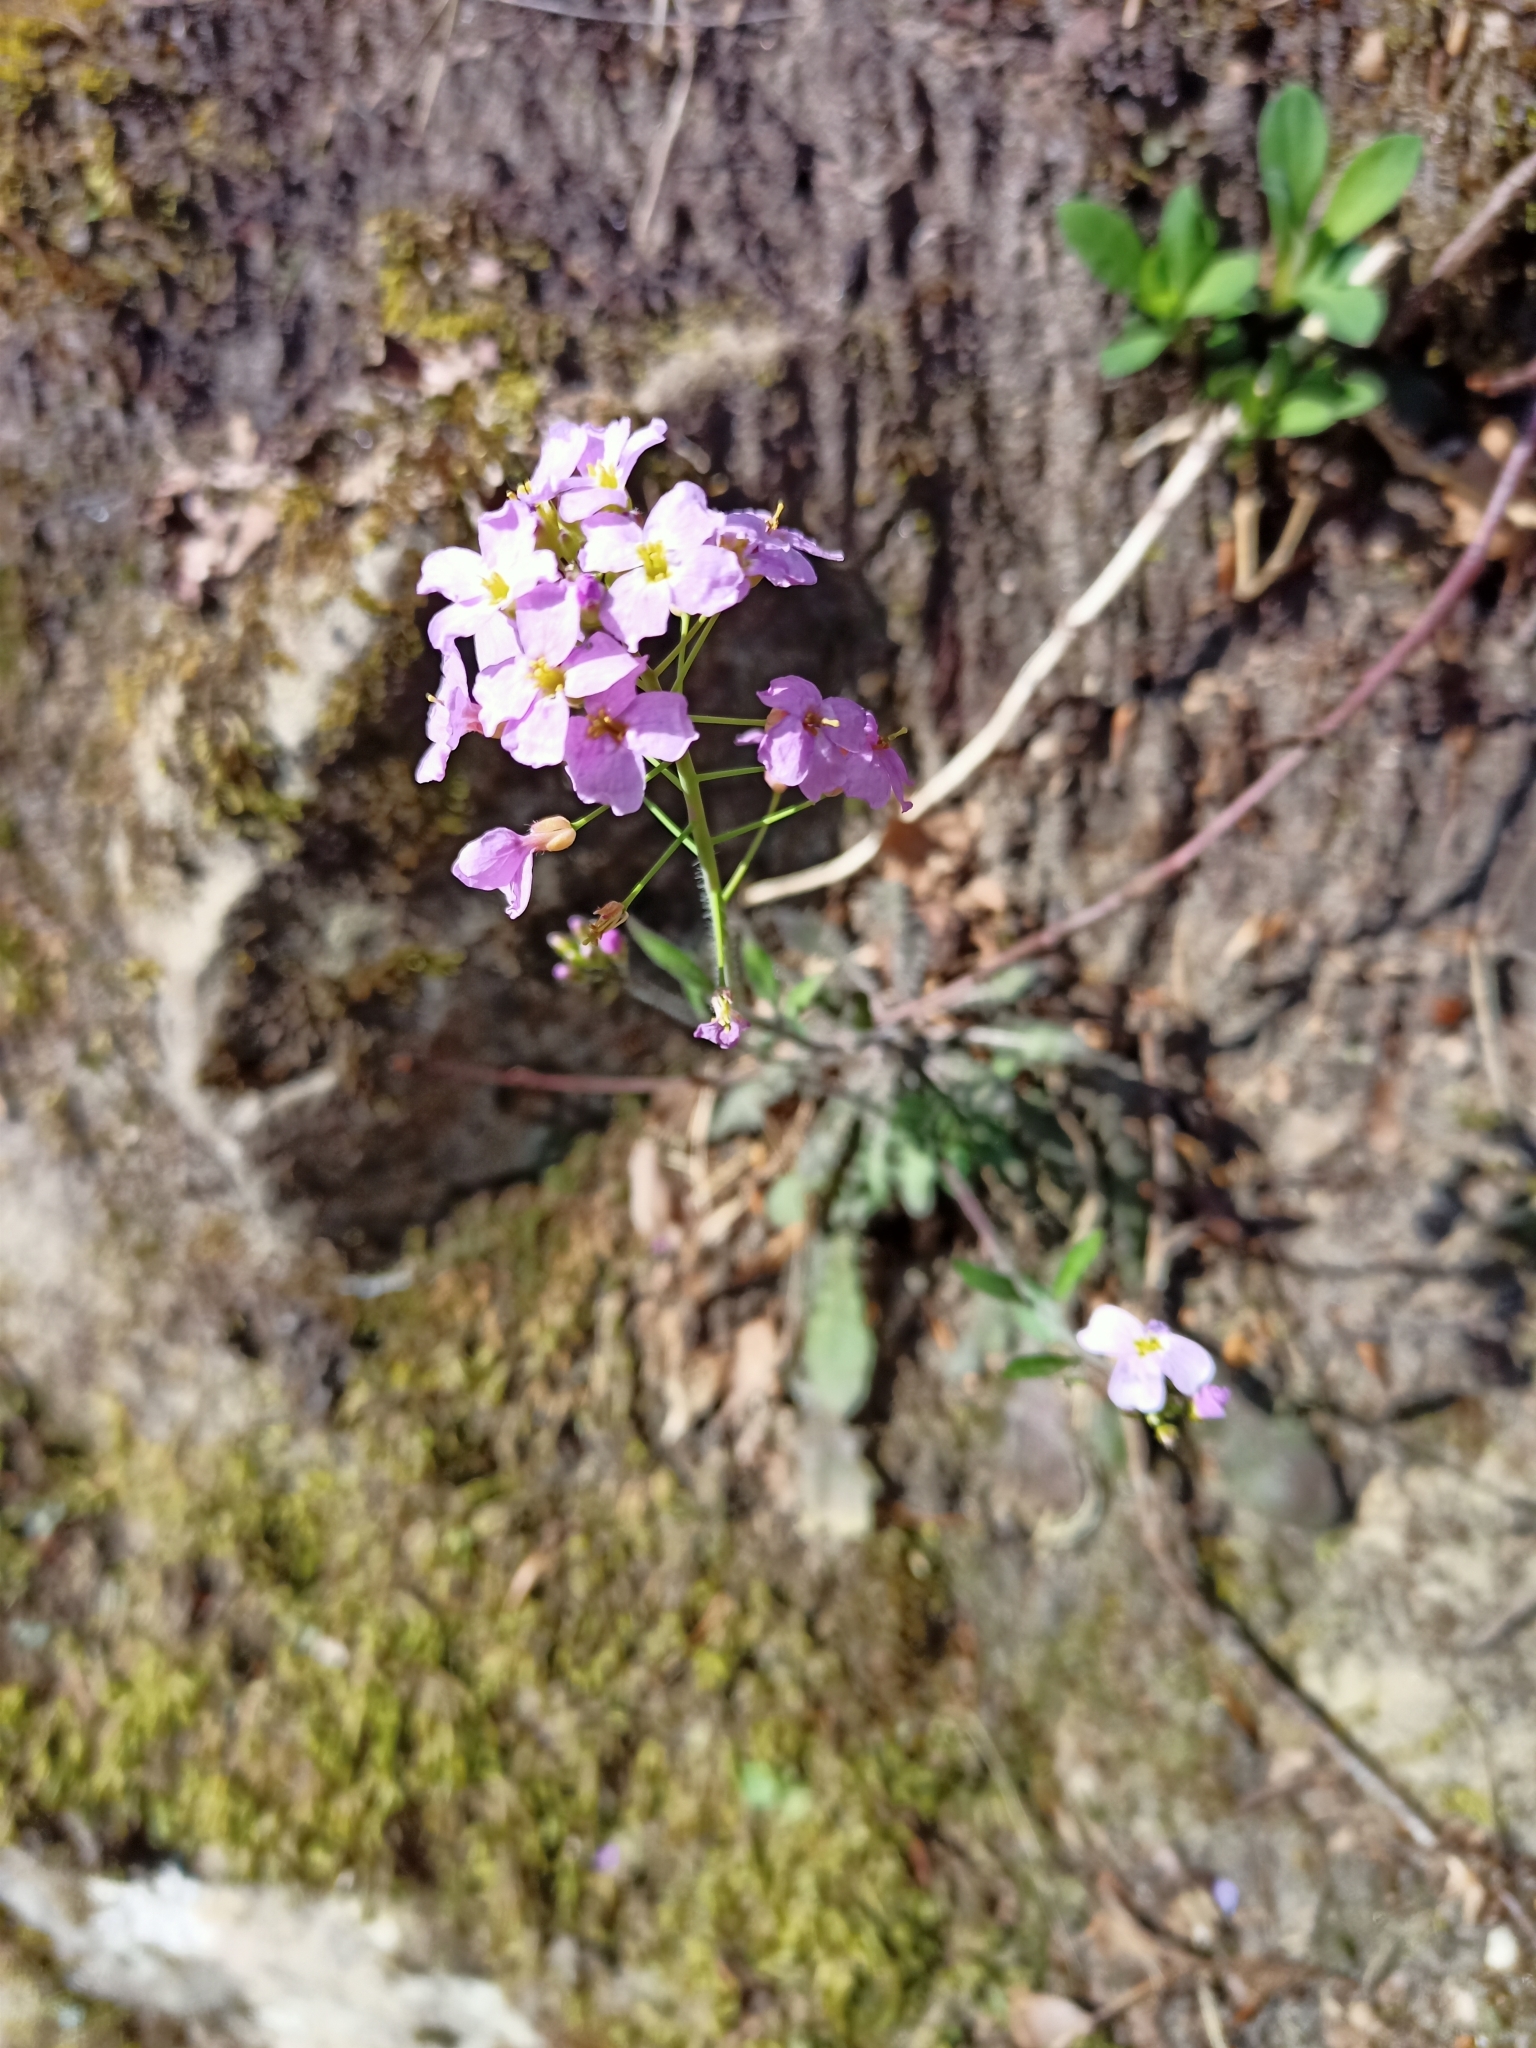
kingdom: Plantae
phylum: Tracheophyta
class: Magnoliopsida
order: Brassicales
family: Brassicaceae
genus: Arabidopsis
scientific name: Arabidopsis arenosa
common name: Sand rock-cress
